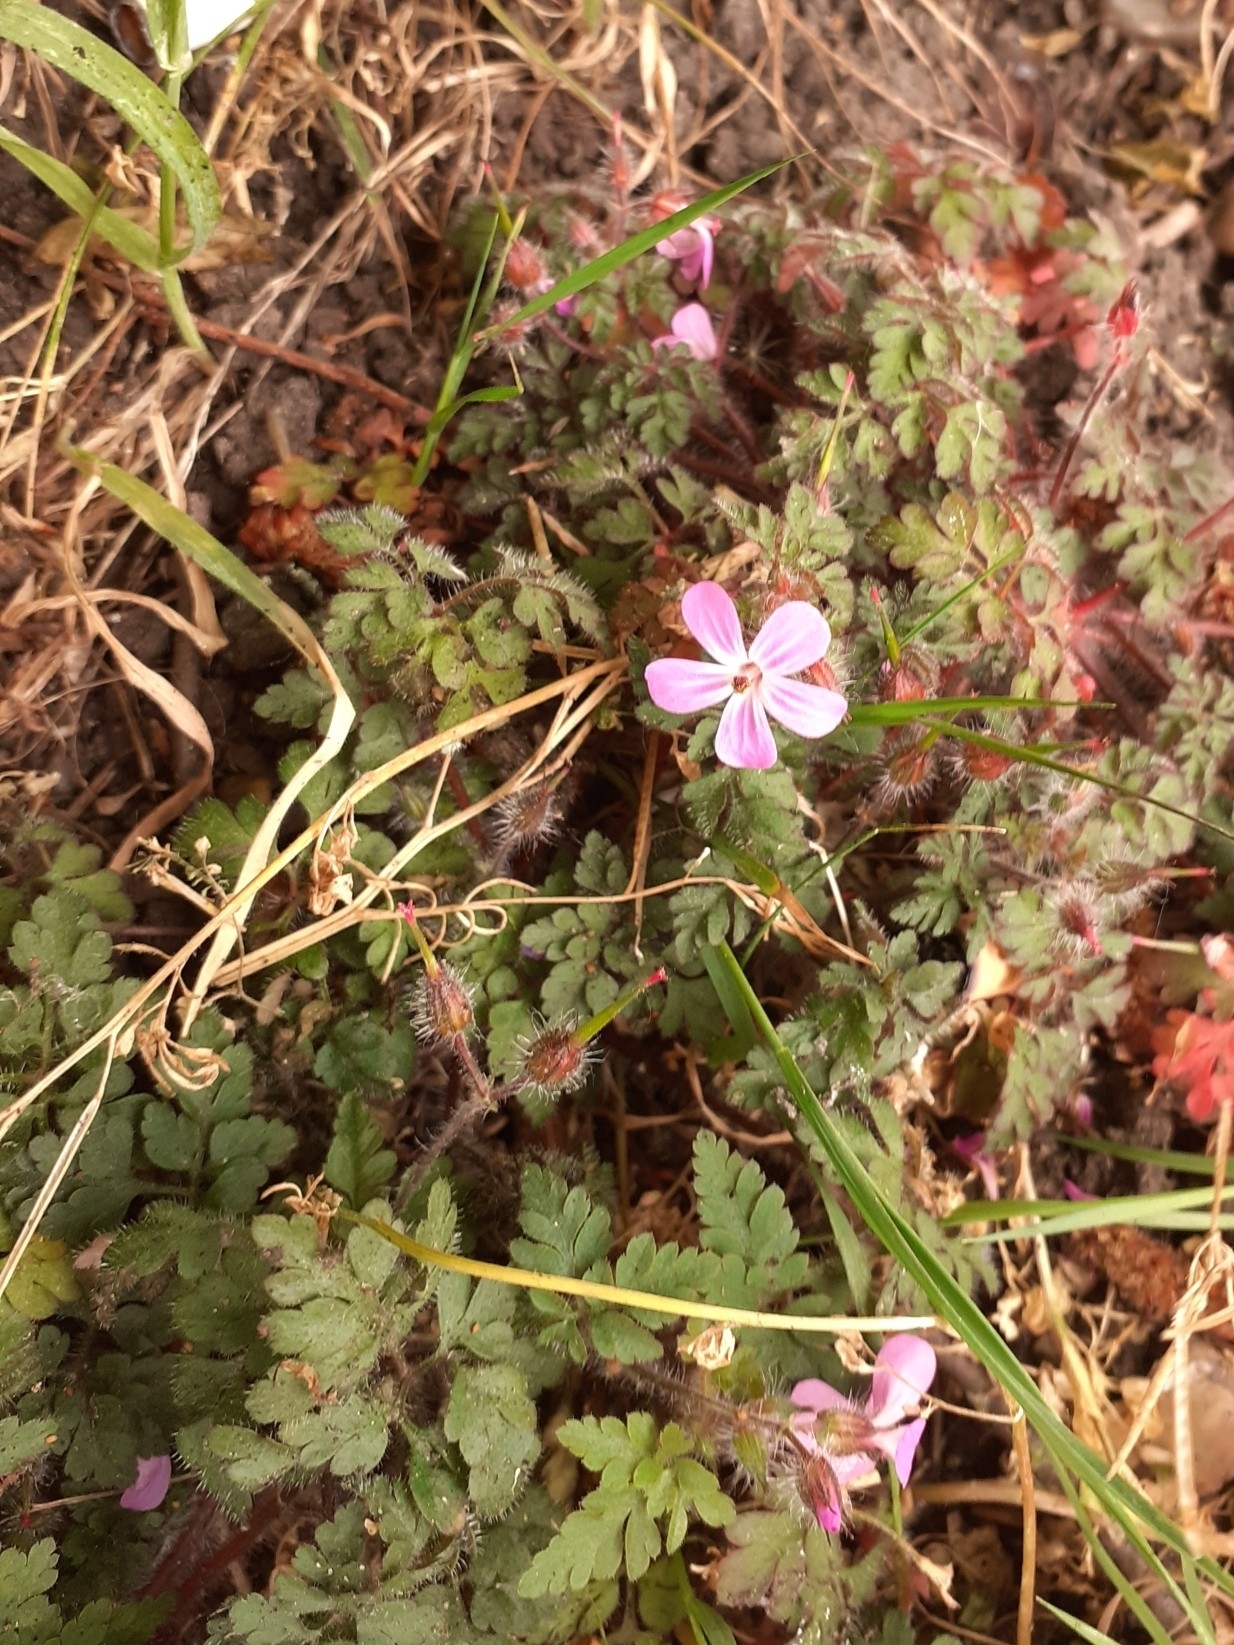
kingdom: Plantae
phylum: Tracheophyta
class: Magnoliopsida
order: Geraniales
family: Geraniaceae
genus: Geranium
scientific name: Geranium robertianum
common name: Herb-robert
